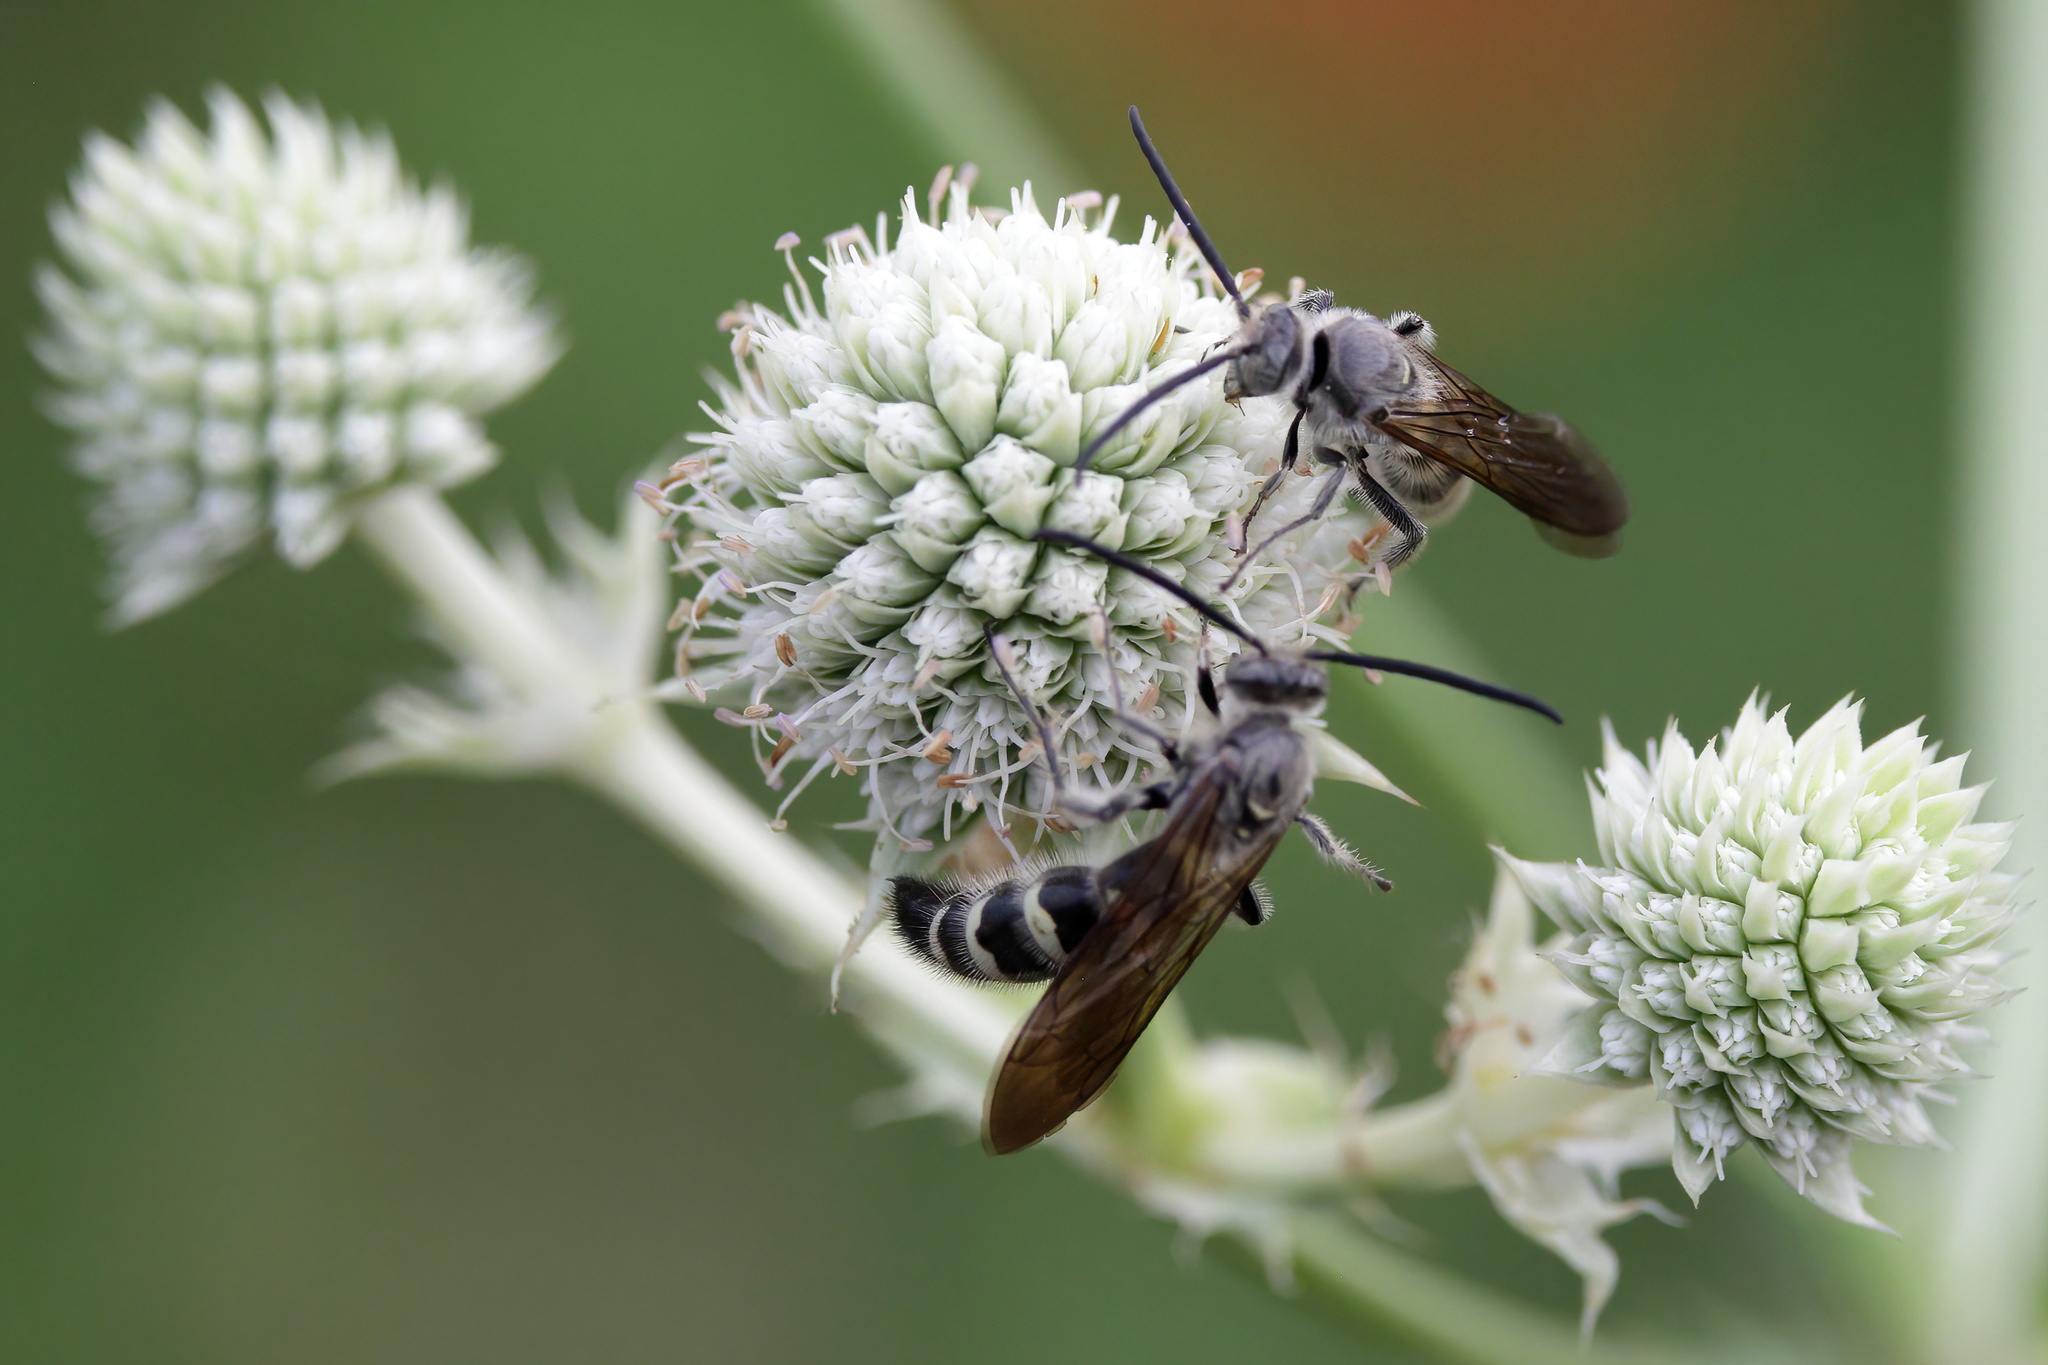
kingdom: Animalia
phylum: Arthropoda
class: Insecta
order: Hymenoptera
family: Scoliidae
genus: Dielis
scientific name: Dielis
